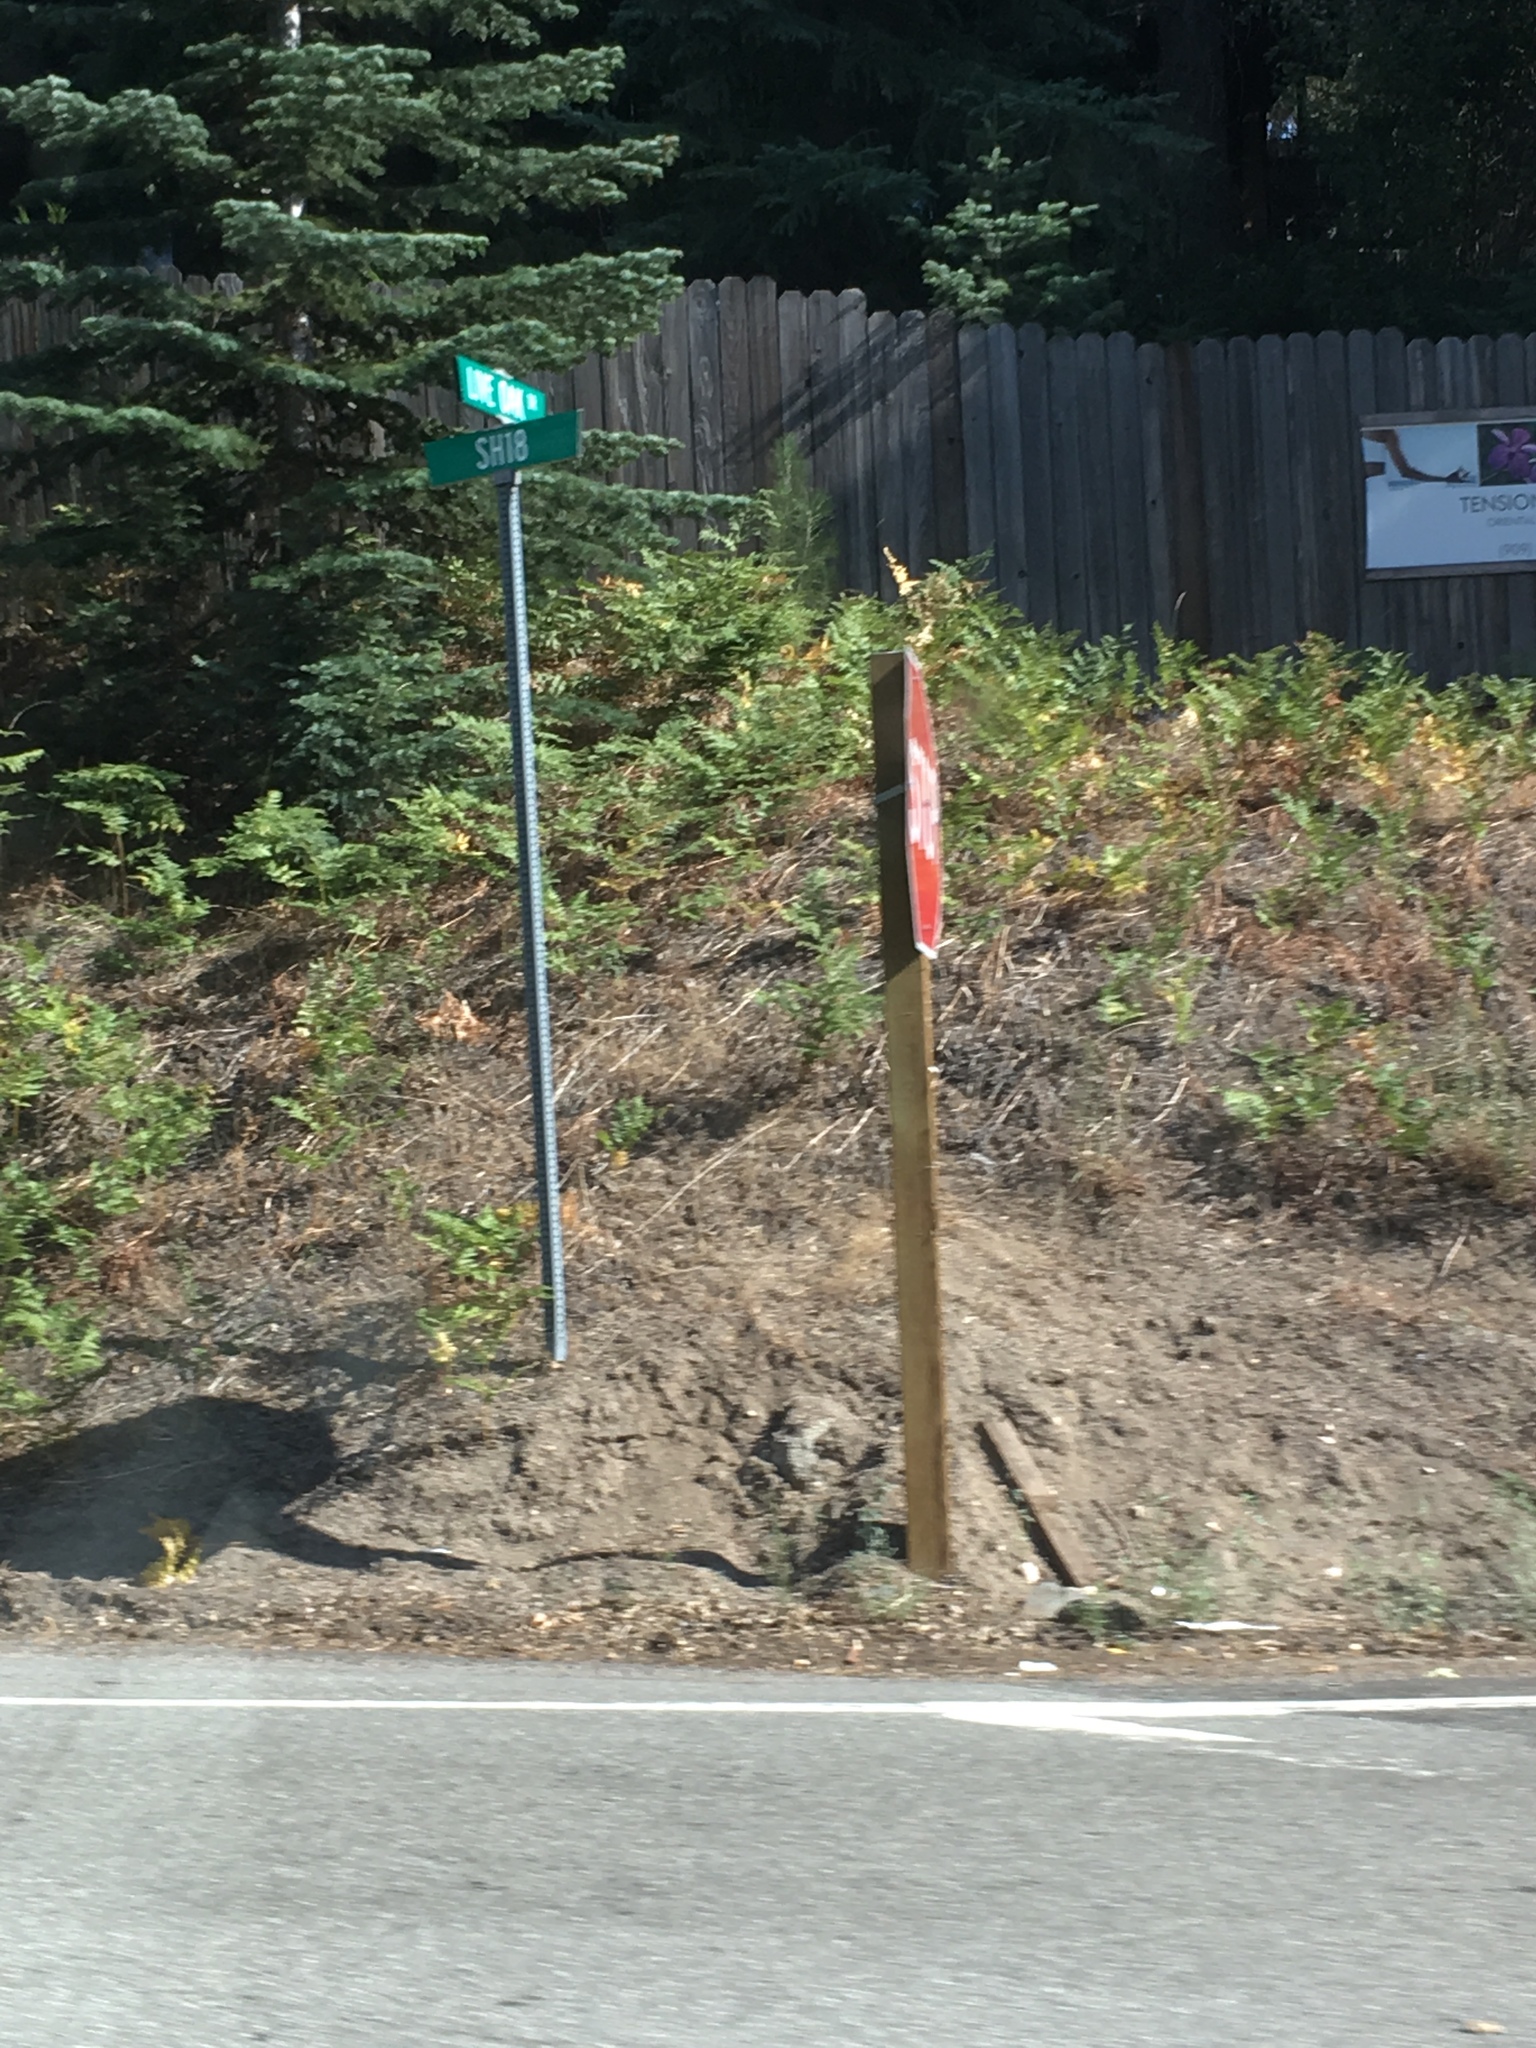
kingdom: Plantae
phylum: Tracheophyta
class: Polypodiopsida
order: Polypodiales
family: Dennstaedtiaceae
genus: Pteridium
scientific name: Pteridium aquilinum
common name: Bracken
